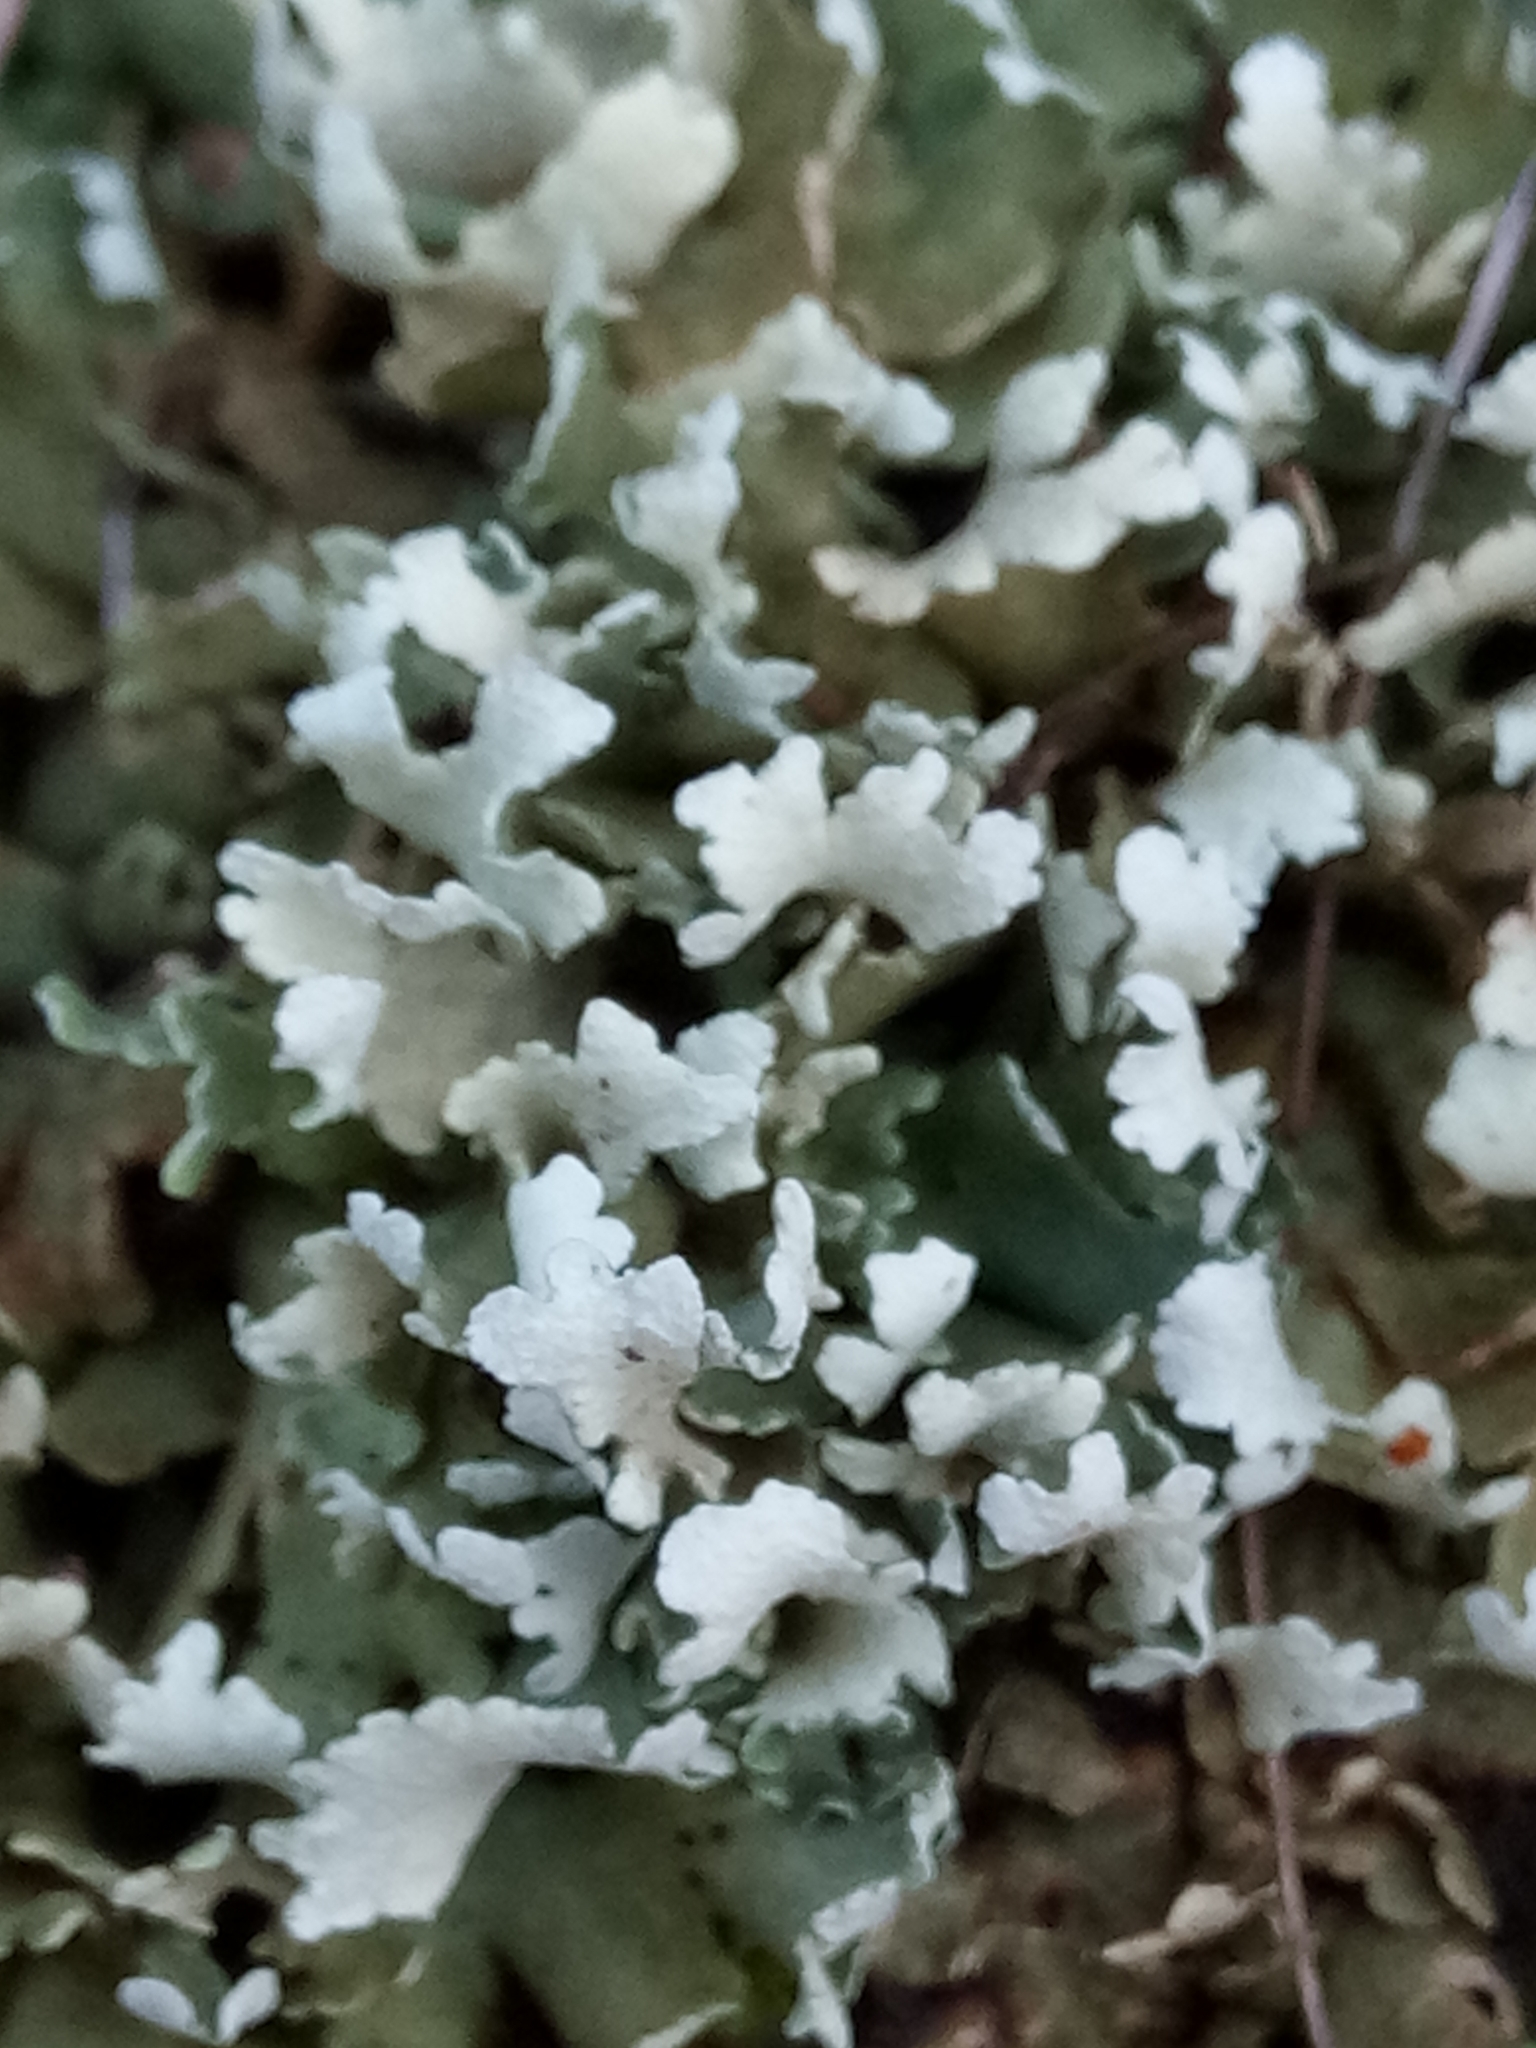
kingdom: Fungi
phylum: Ascomycota
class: Lecanoromycetes
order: Lecanorales
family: Cladoniaceae
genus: Cladonia
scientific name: Cladonia foliacea
